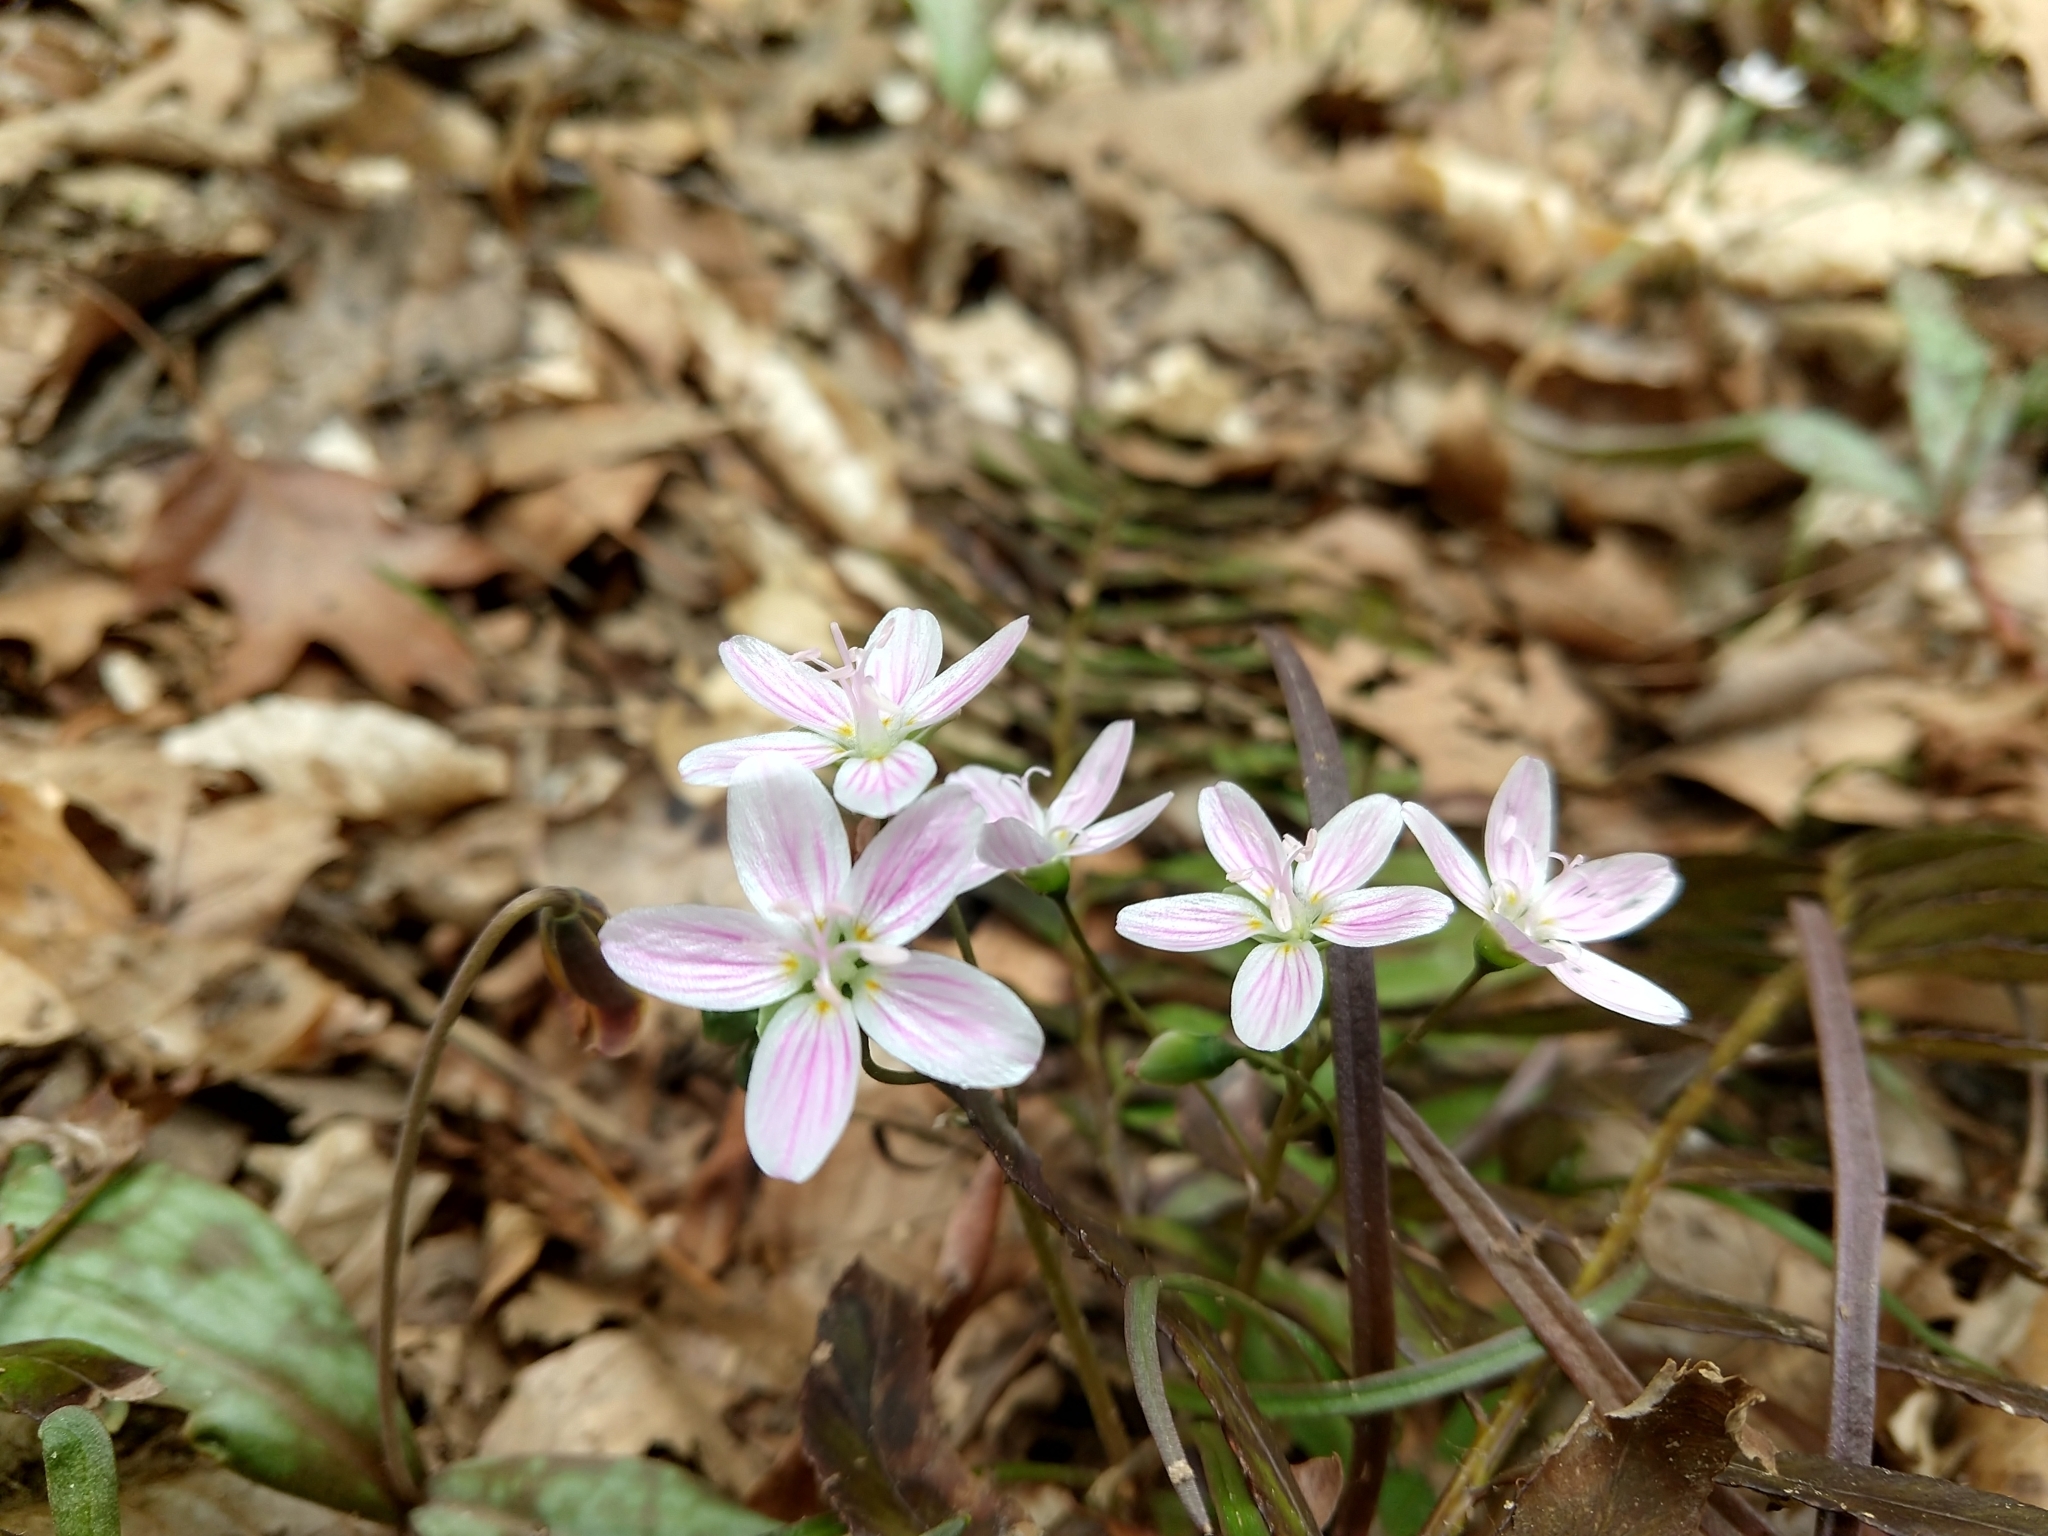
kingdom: Plantae
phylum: Tracheophyta
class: Magnoliopsida
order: Caryophyllales
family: Montiaceae
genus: Claytonia
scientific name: Claytonia virginica
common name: Virginia springbeauty
